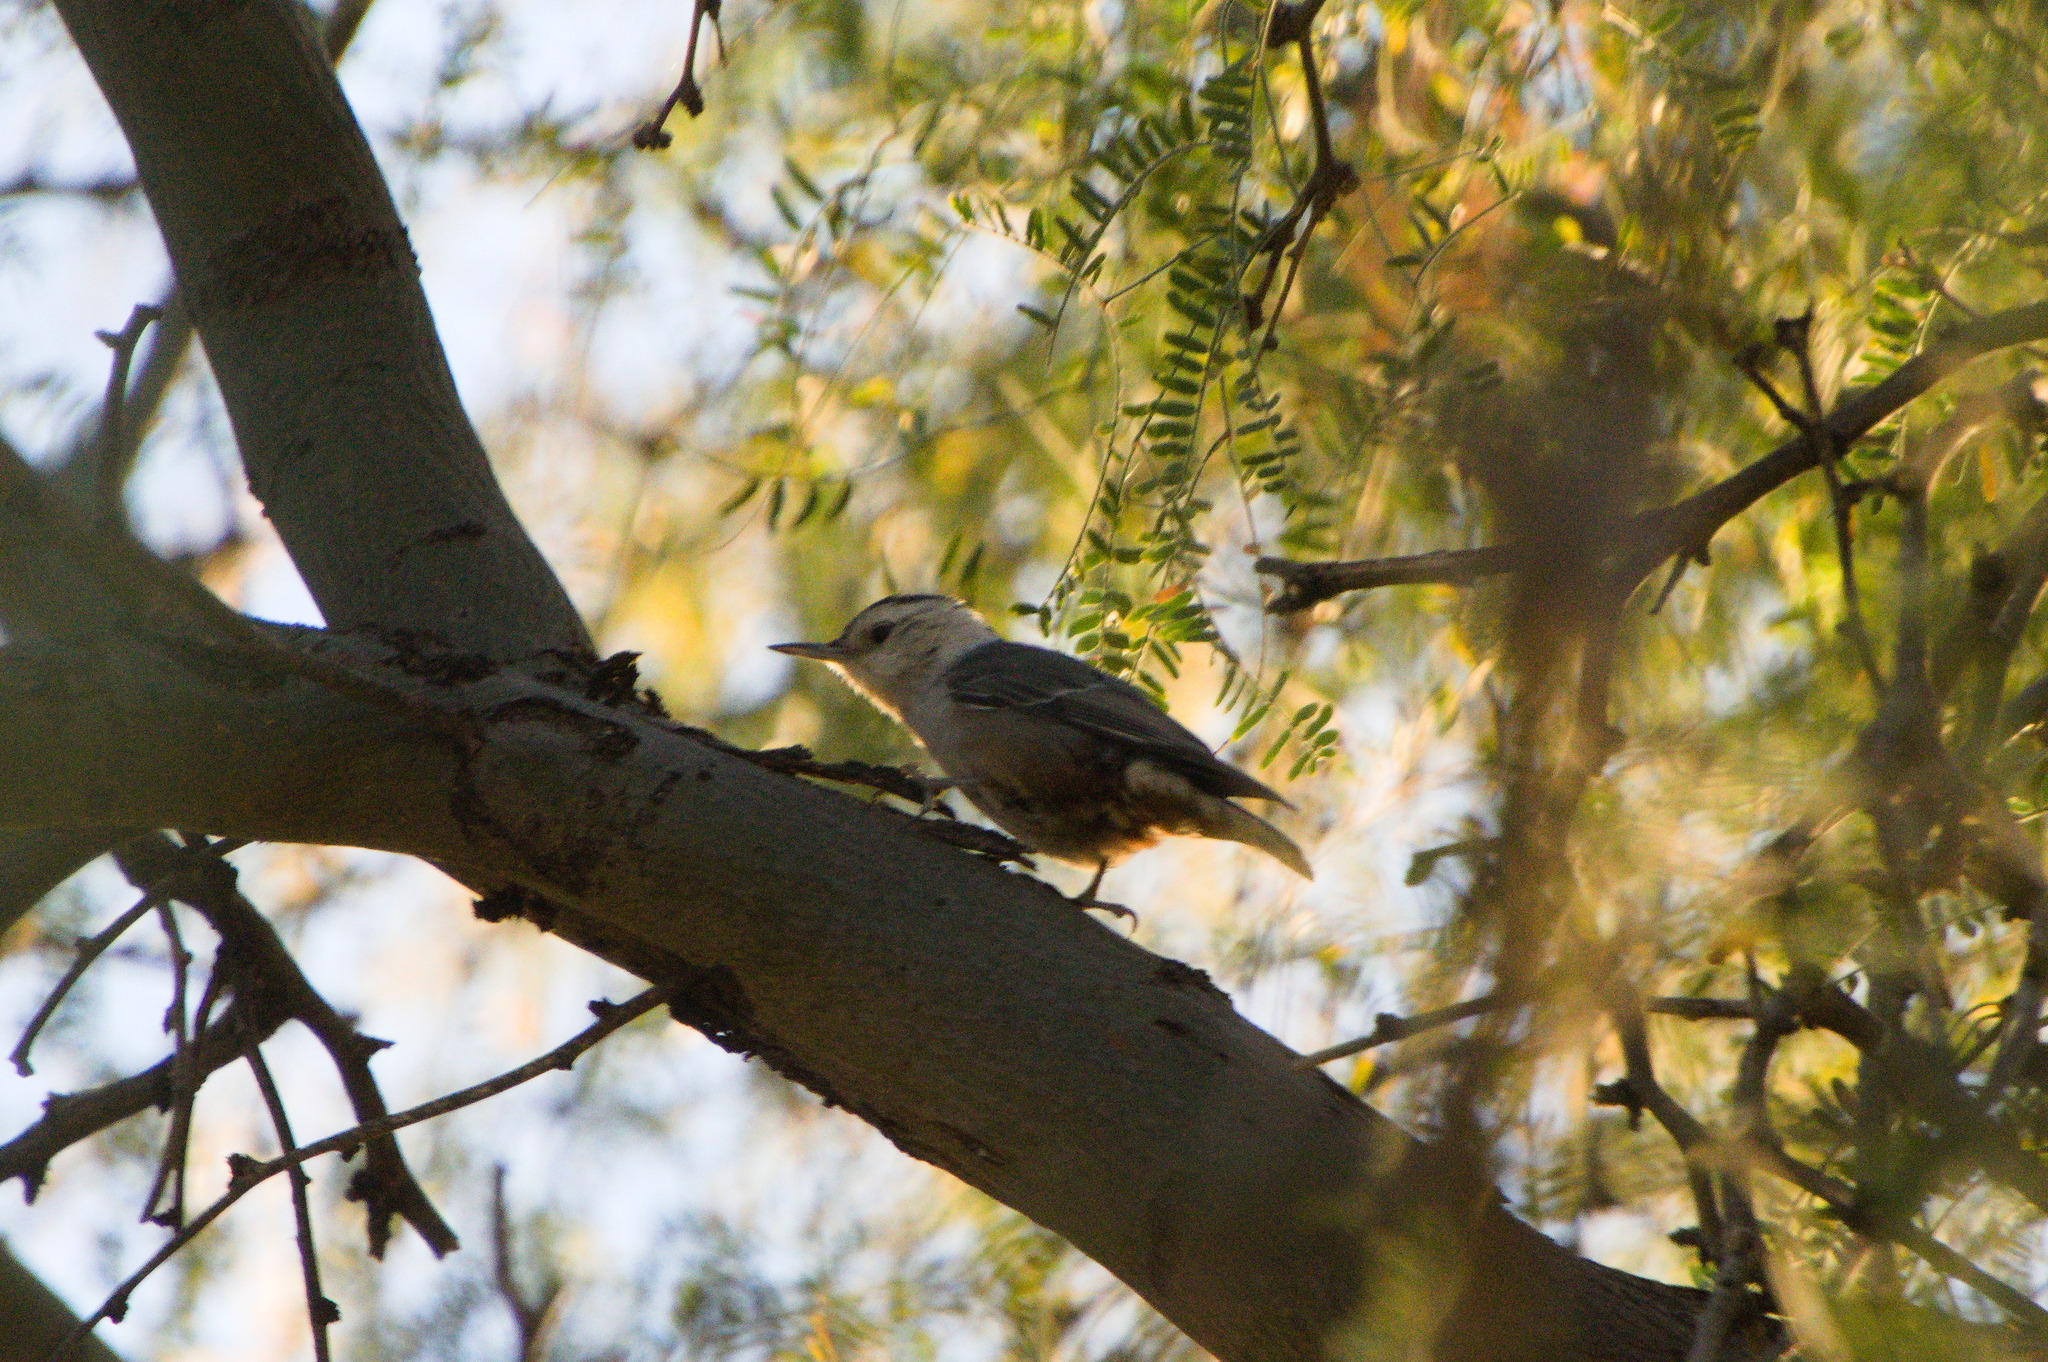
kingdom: Animalia
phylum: Chordata
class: Aves
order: Passeriformes
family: Sittidae
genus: Sitta
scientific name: Sitta carolinensis
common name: White-breasted nuthatch
